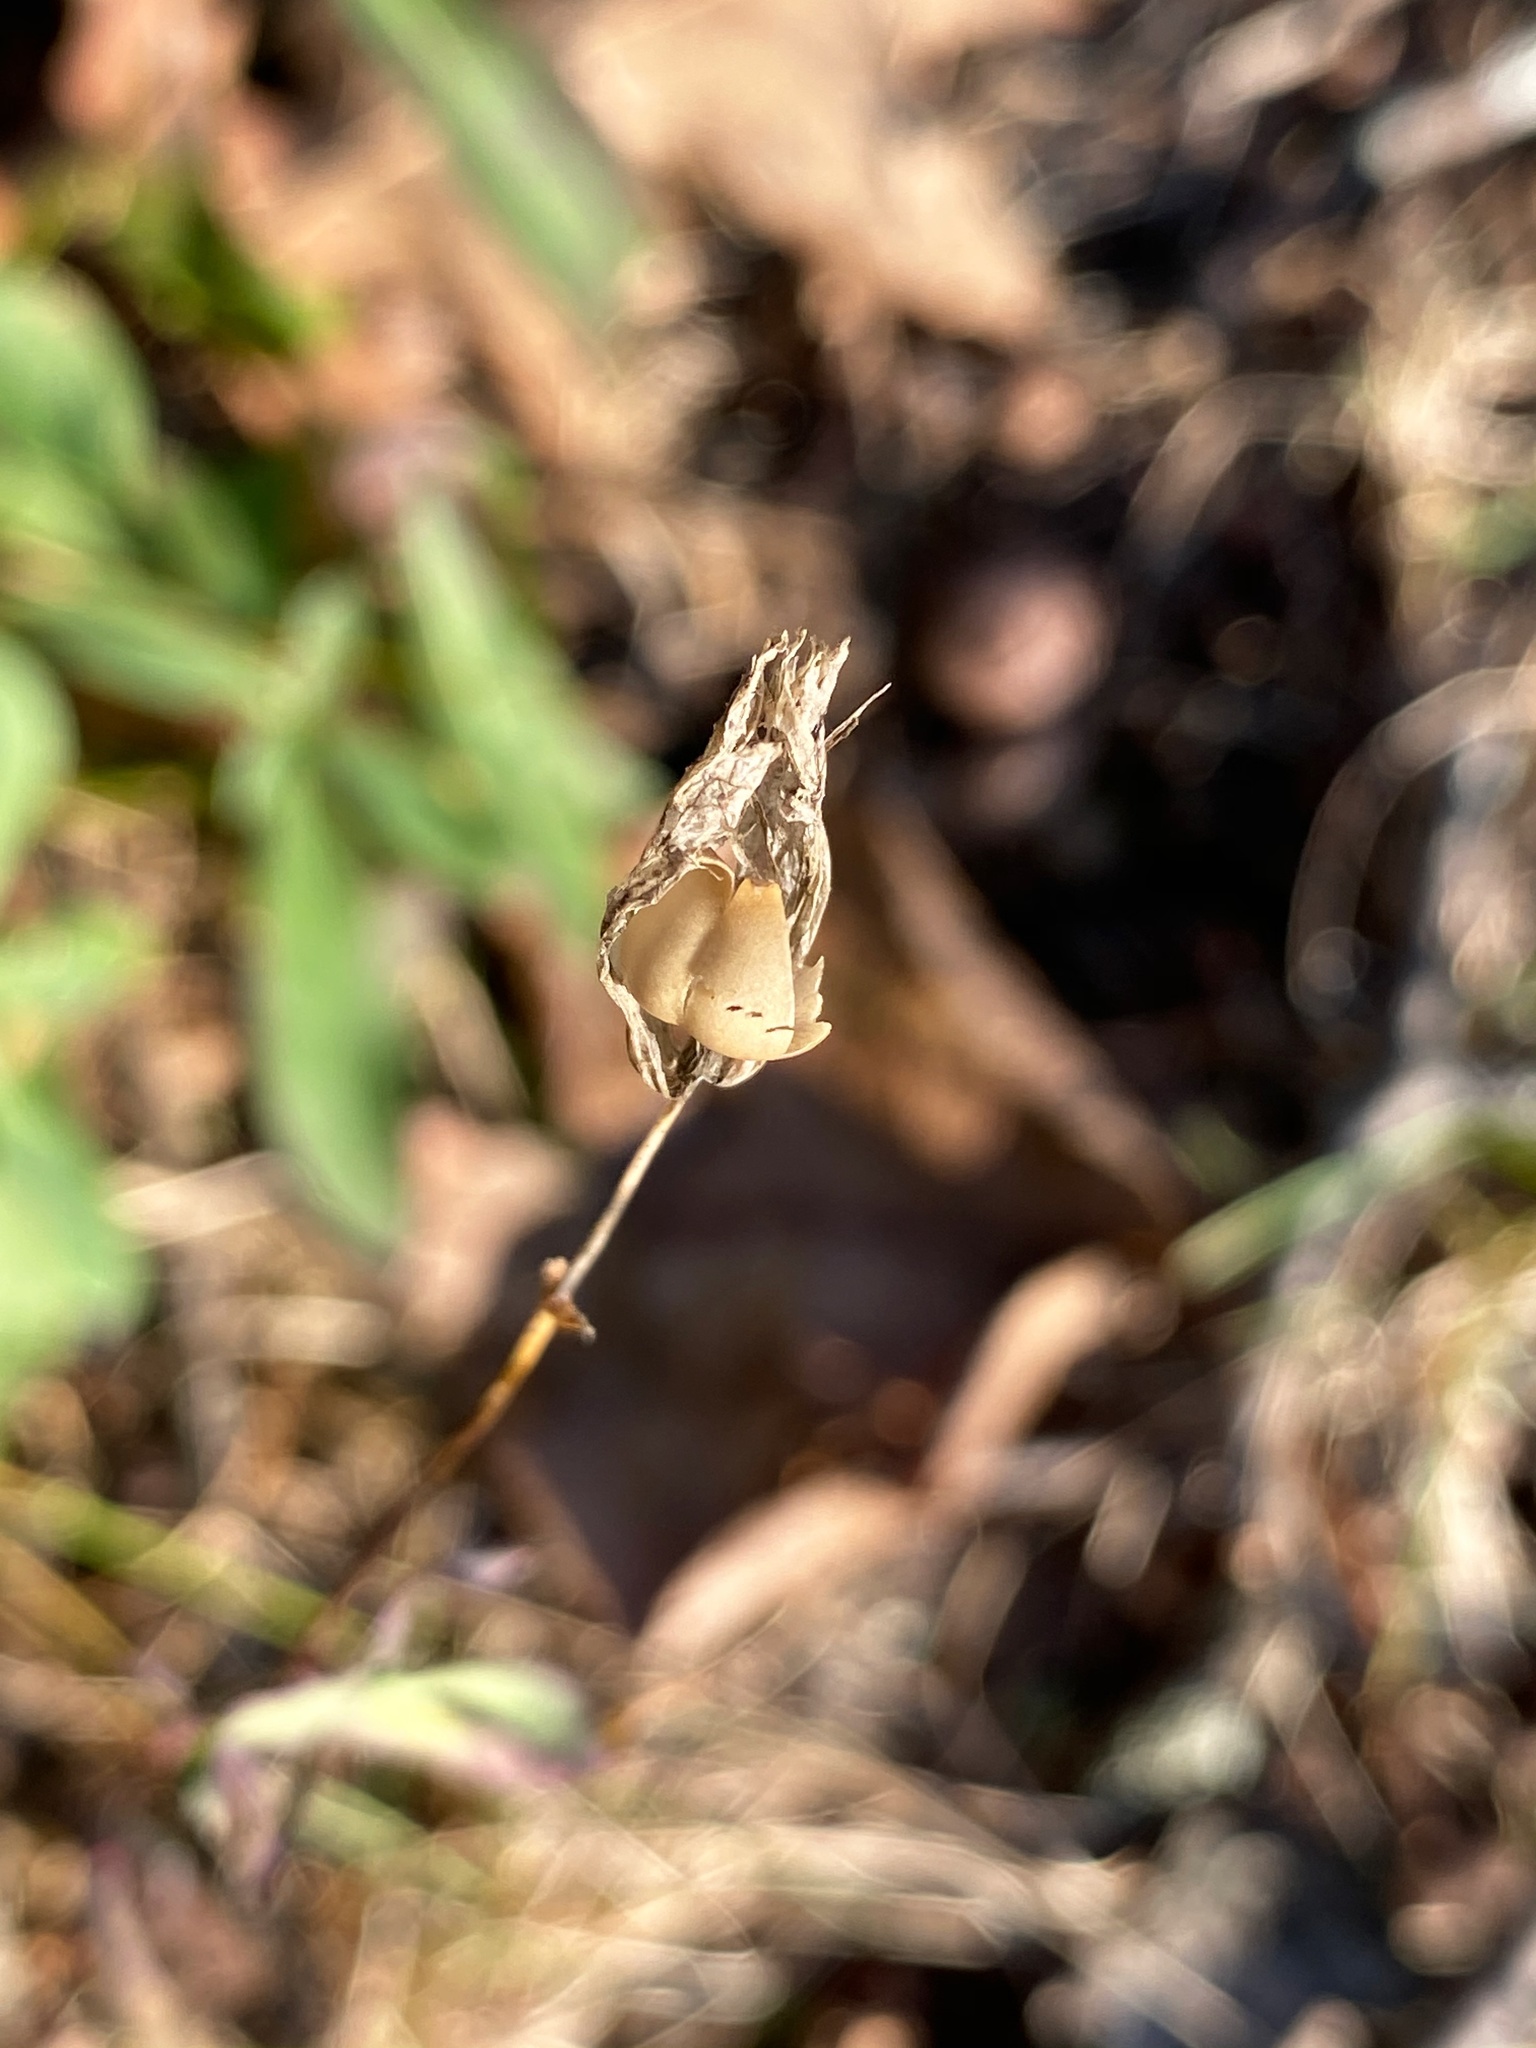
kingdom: Plantae
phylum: Tracheophyta
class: Magnoliopsida
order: Caryophyllales
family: Caryophyllaceae
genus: Silene
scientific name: Silene vulgaris
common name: Bladder campion
